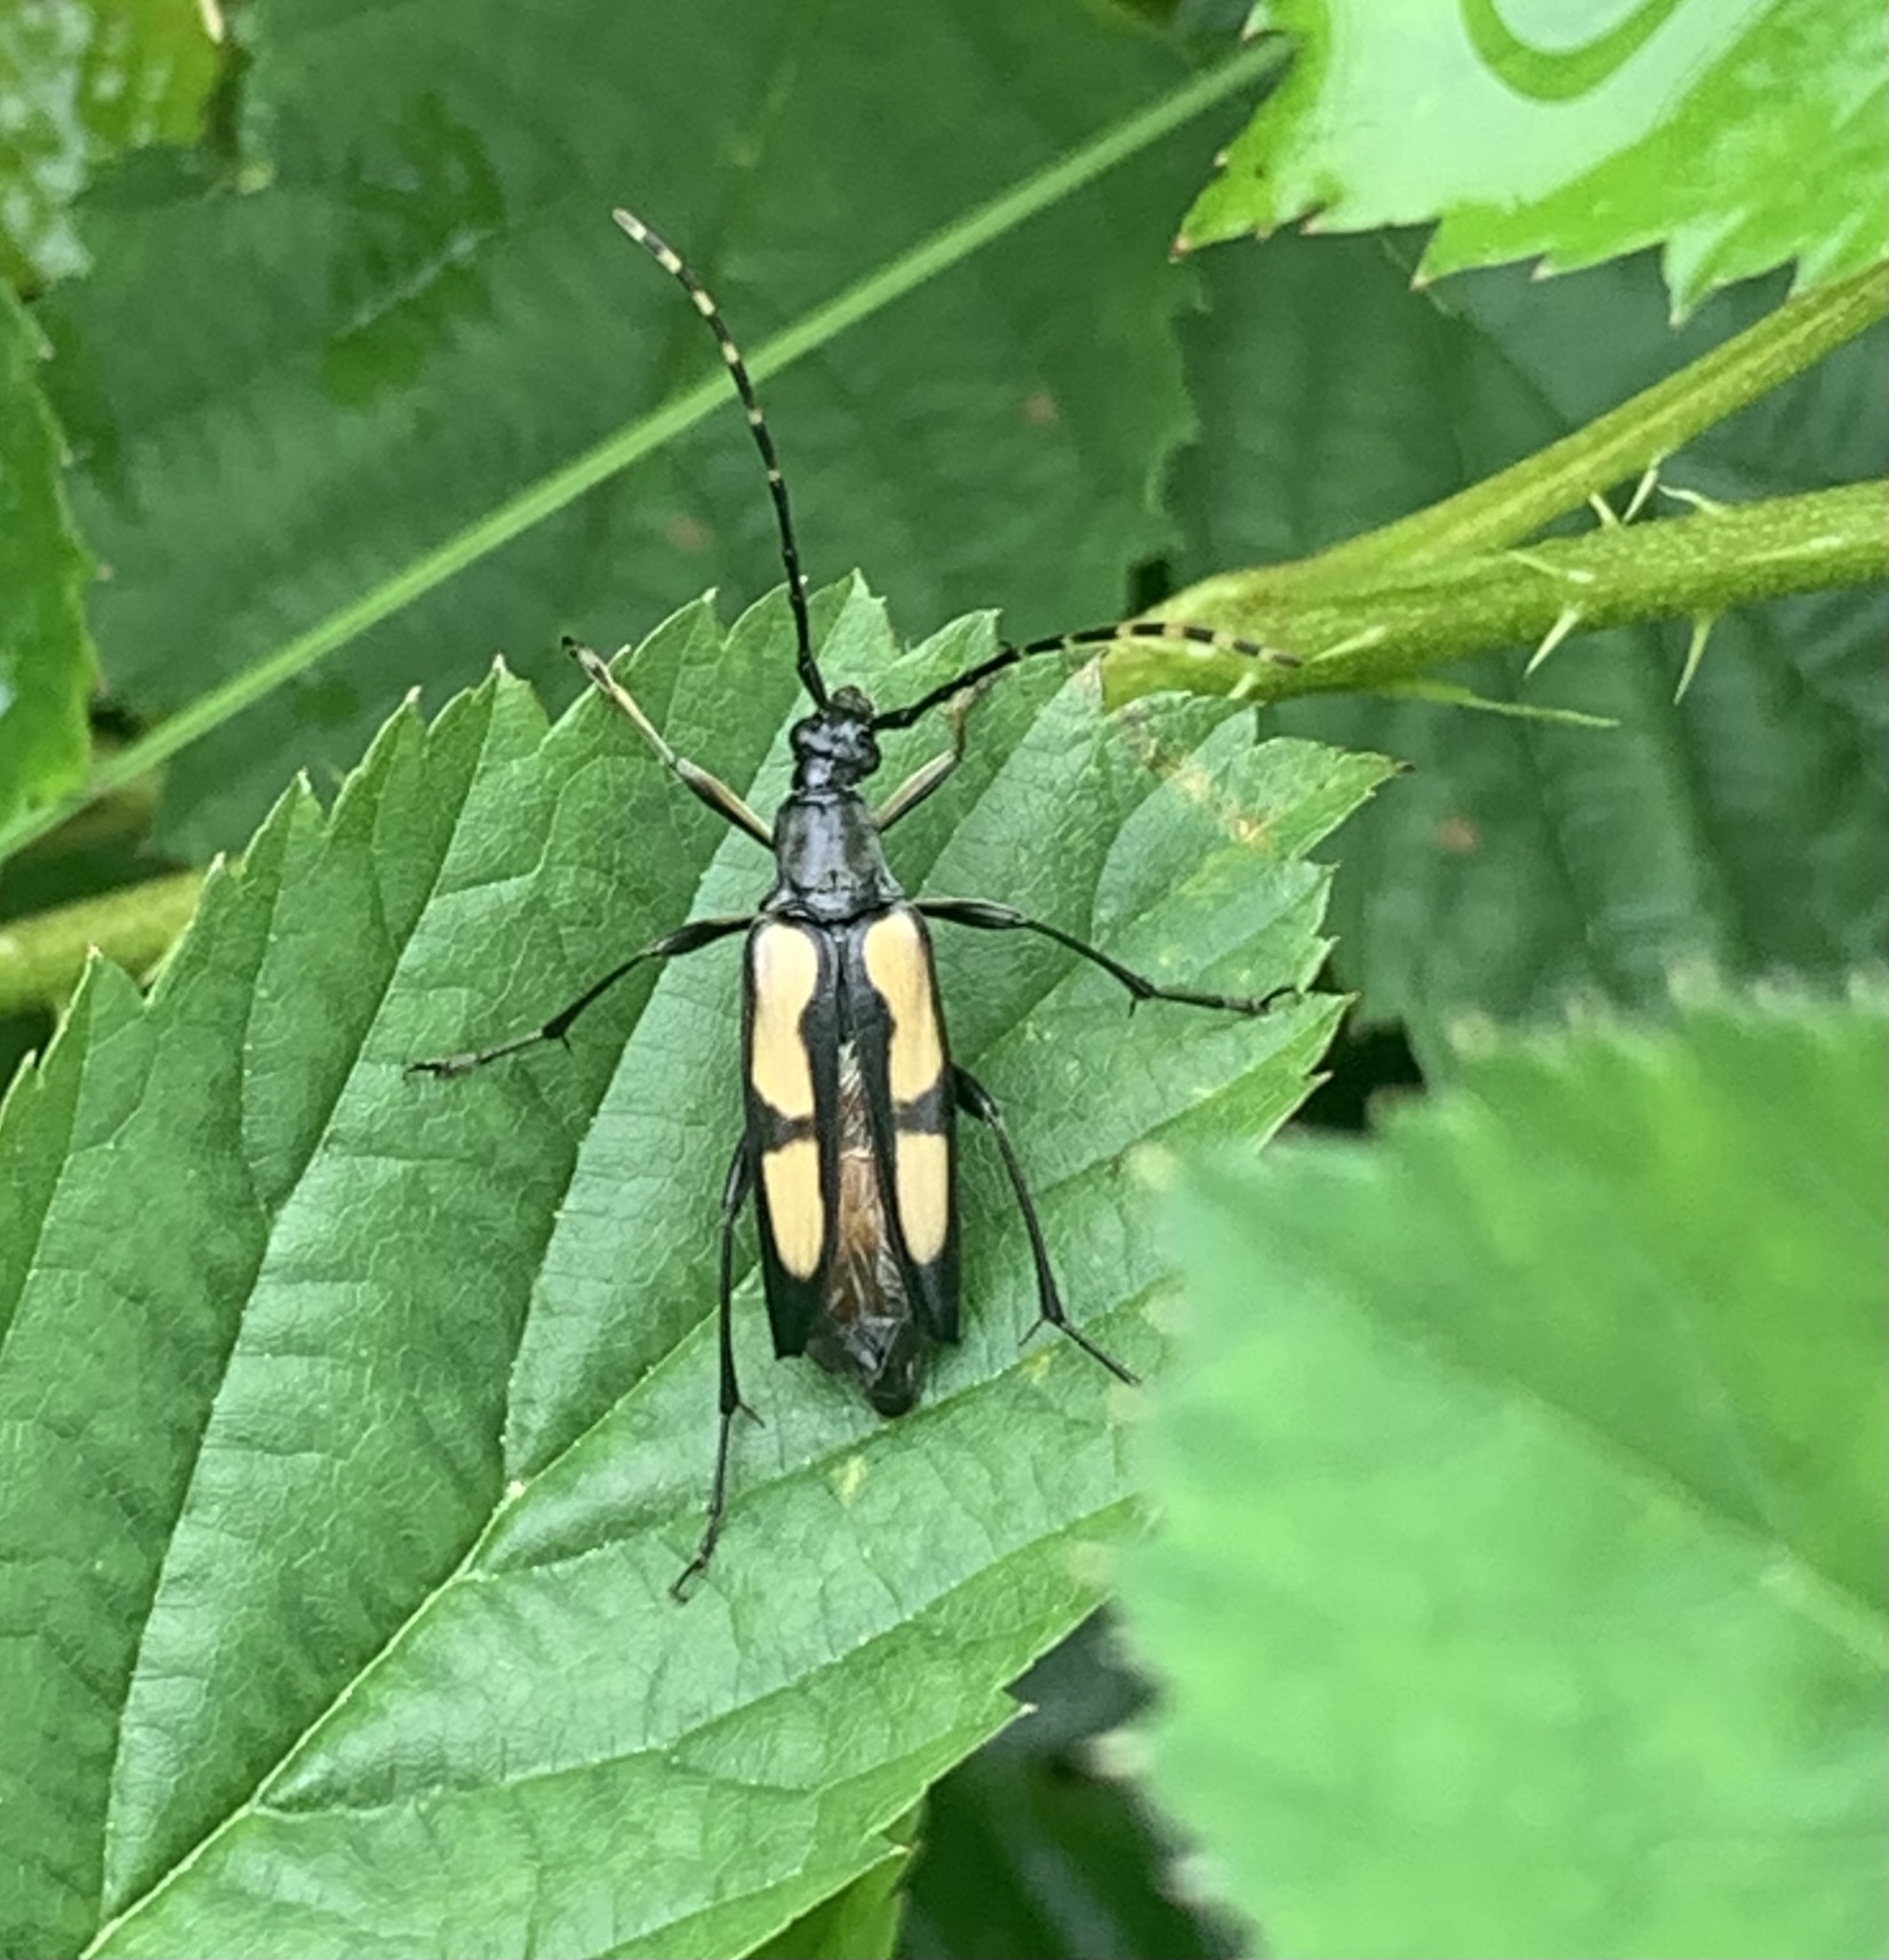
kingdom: Animalia
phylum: Arthropoda
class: Insecta
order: Coleoptera
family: Cerambycidae
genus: Etorofus
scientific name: Etorofus
